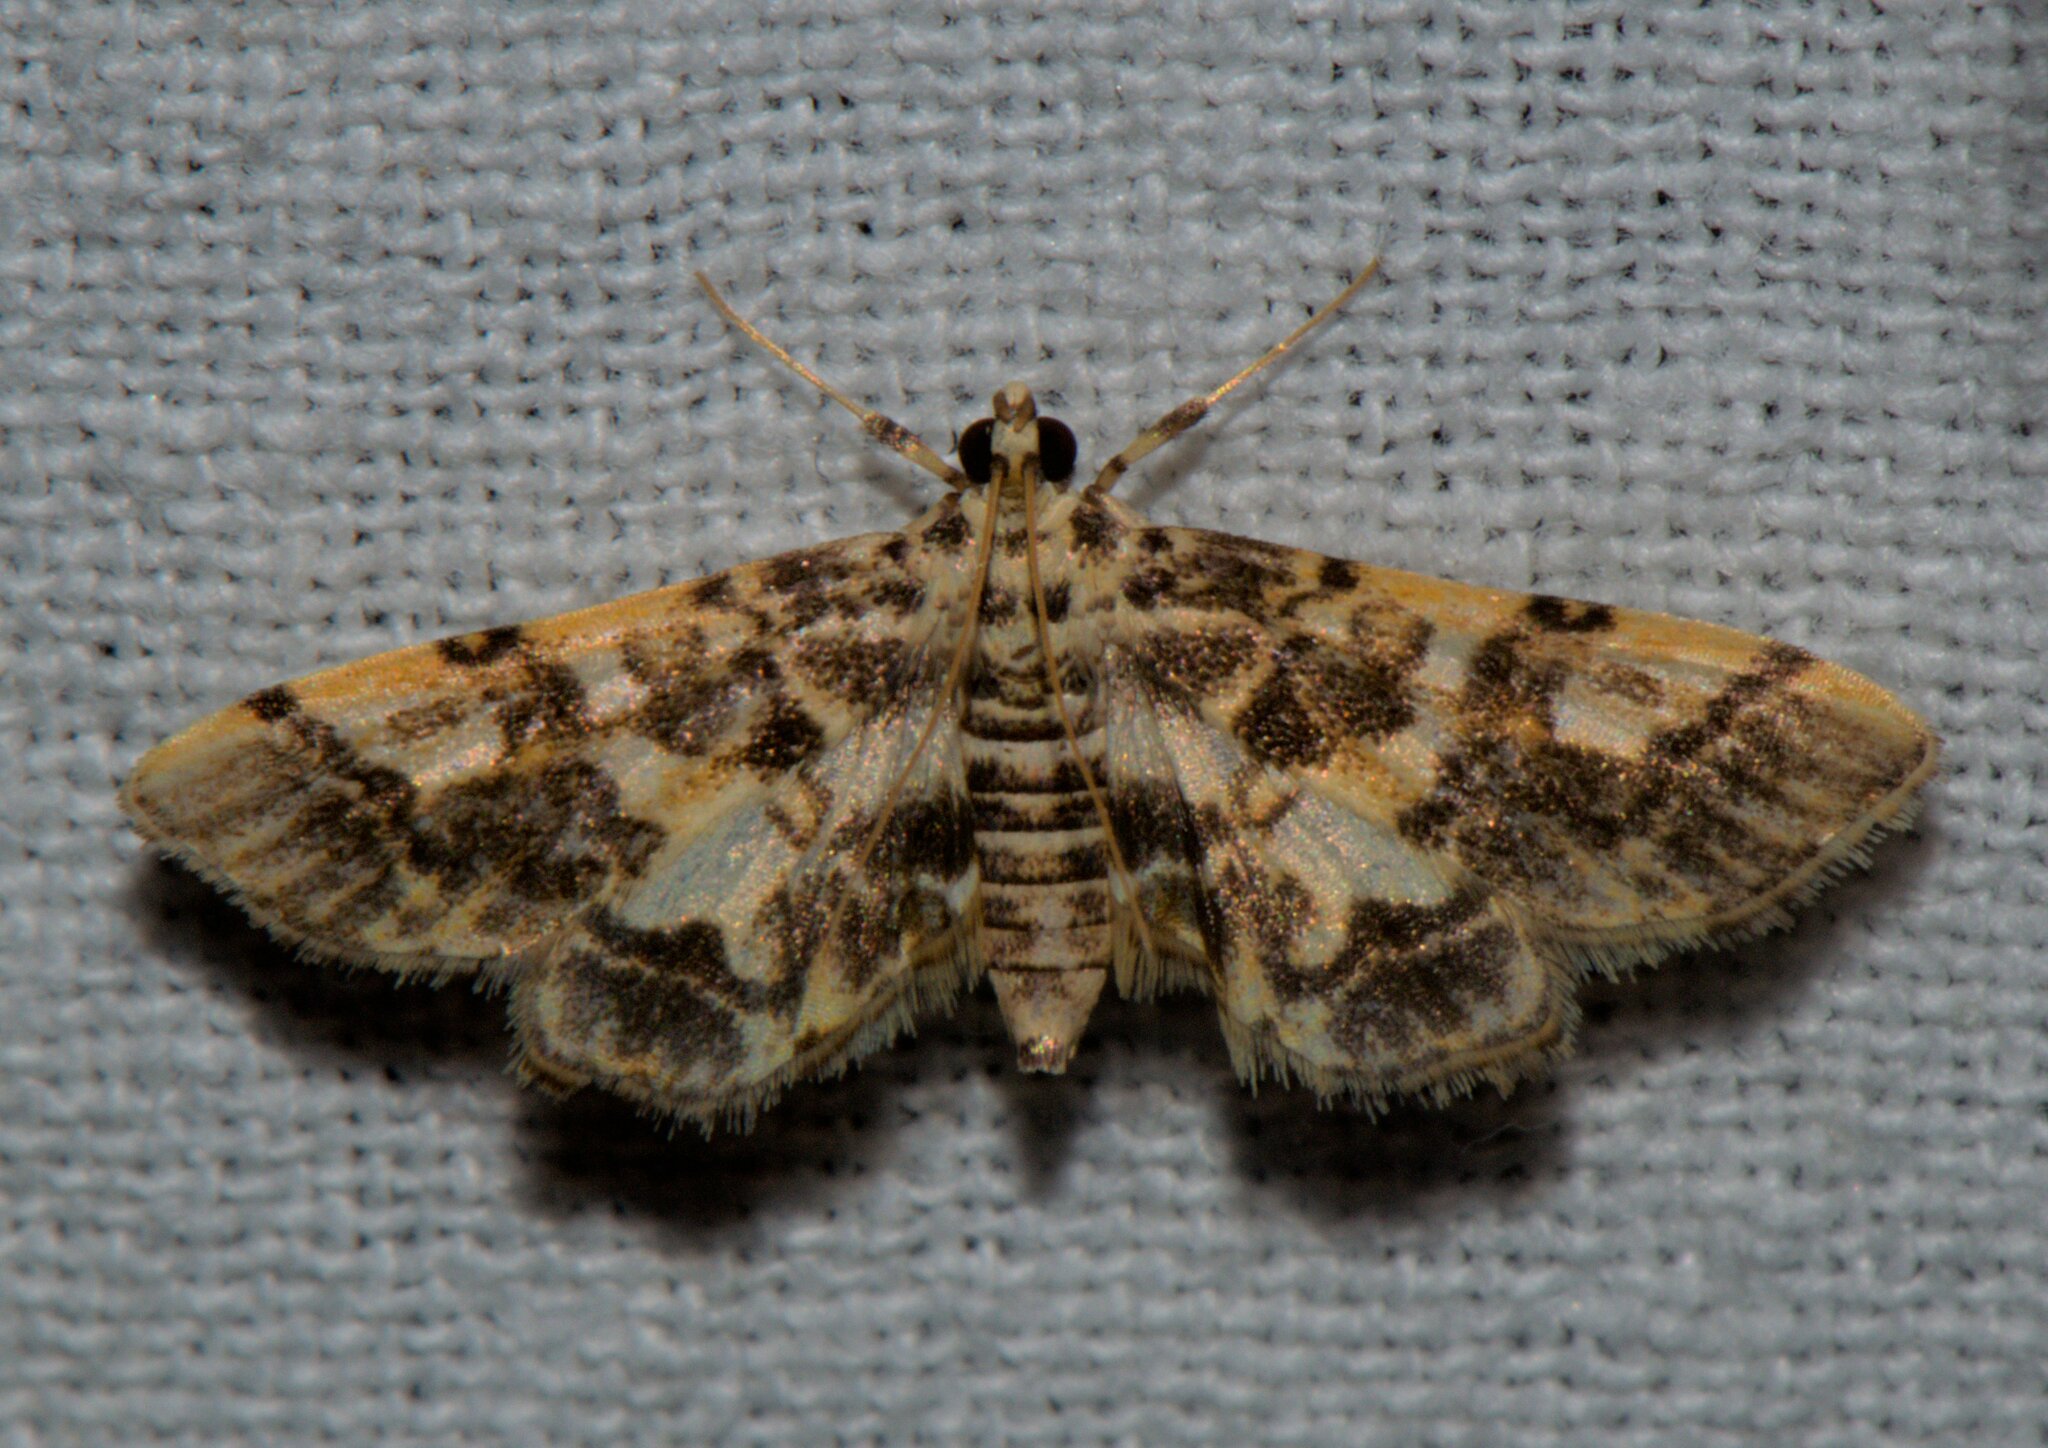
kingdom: Animalia
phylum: Arthropoda
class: Insecta
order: Lepidoptera
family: Crambidae
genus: Lamprosema
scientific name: Lamprosema commixta
